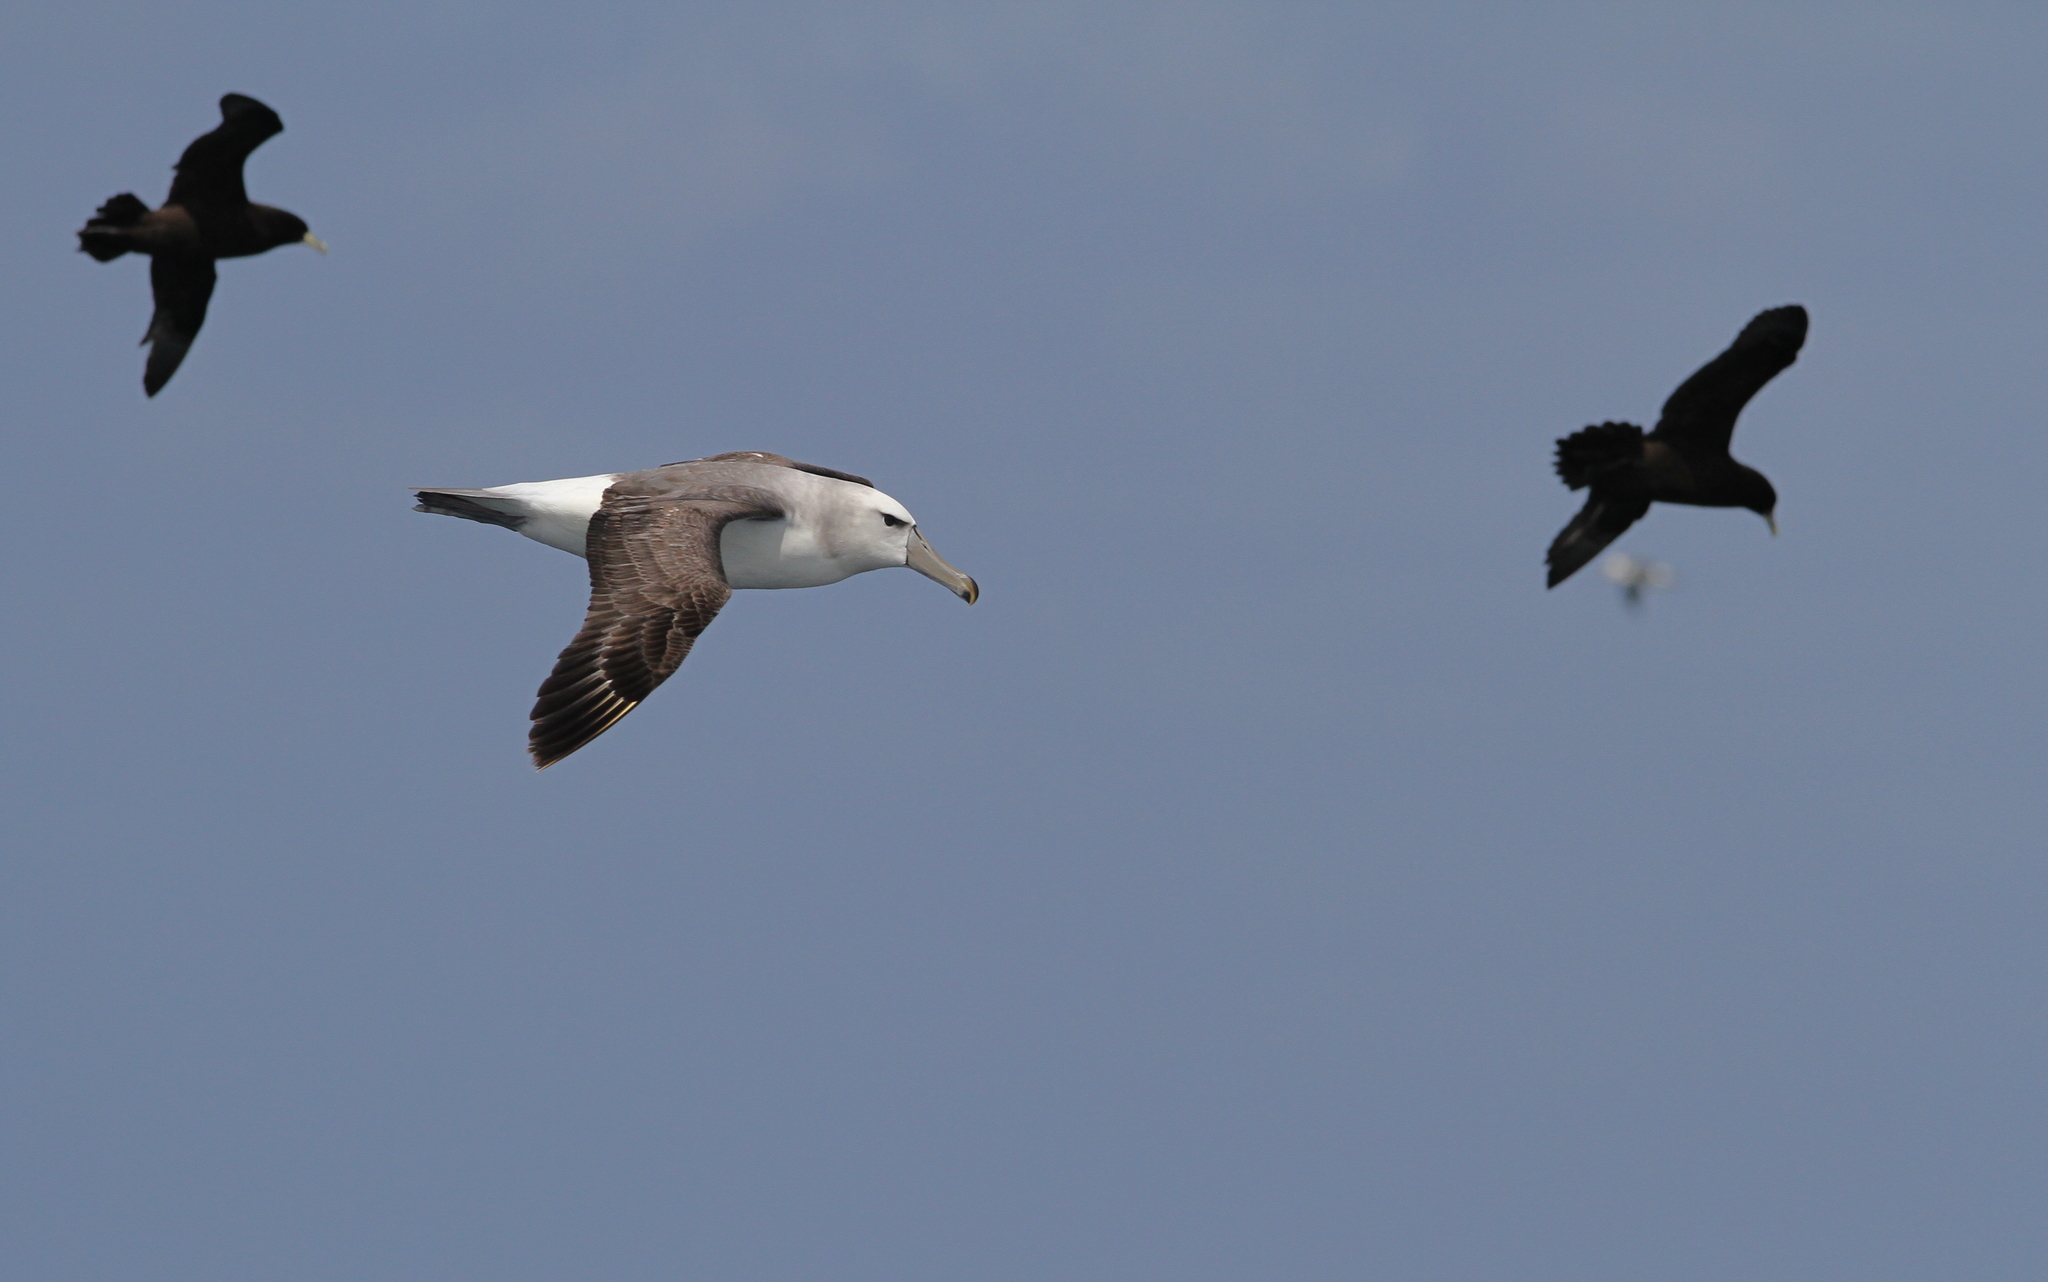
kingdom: Animalia
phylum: Chordata
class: Aves
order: Procellariiformes
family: Diomedeidae
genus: Thalassarche
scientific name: Thalassarche cauta
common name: Shy albatross
